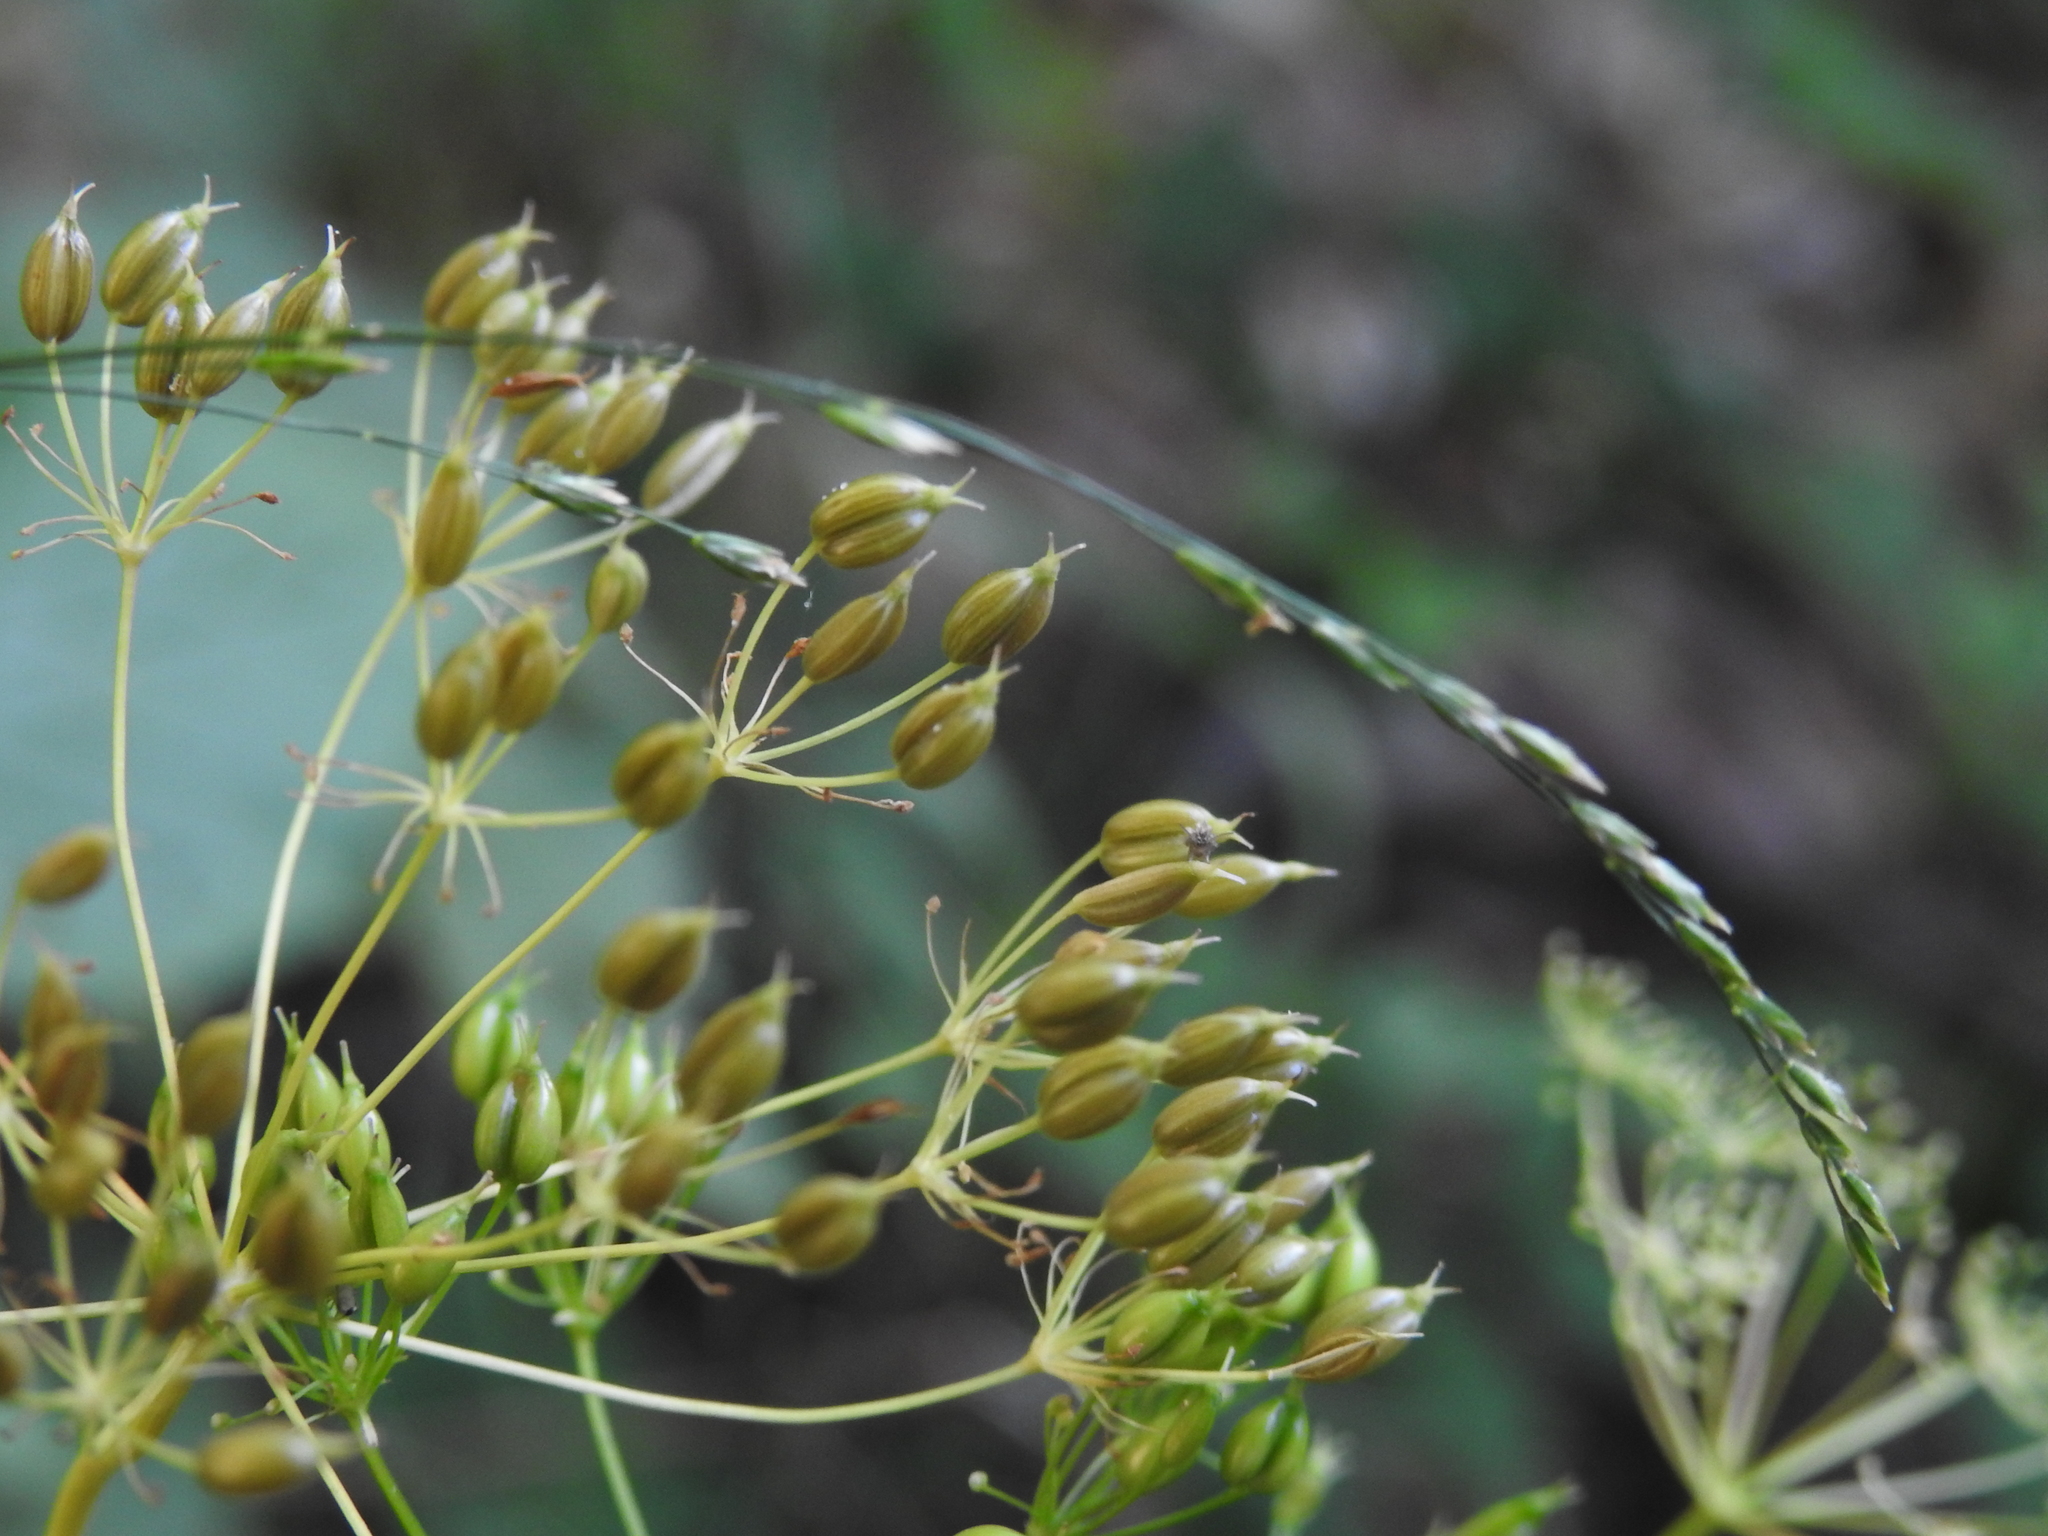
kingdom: Plantae
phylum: Tracheophyta
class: Magnoliopsida
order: Apiales
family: Apiaceae
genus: Conopodium
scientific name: Conopodium majus
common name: Pignut
